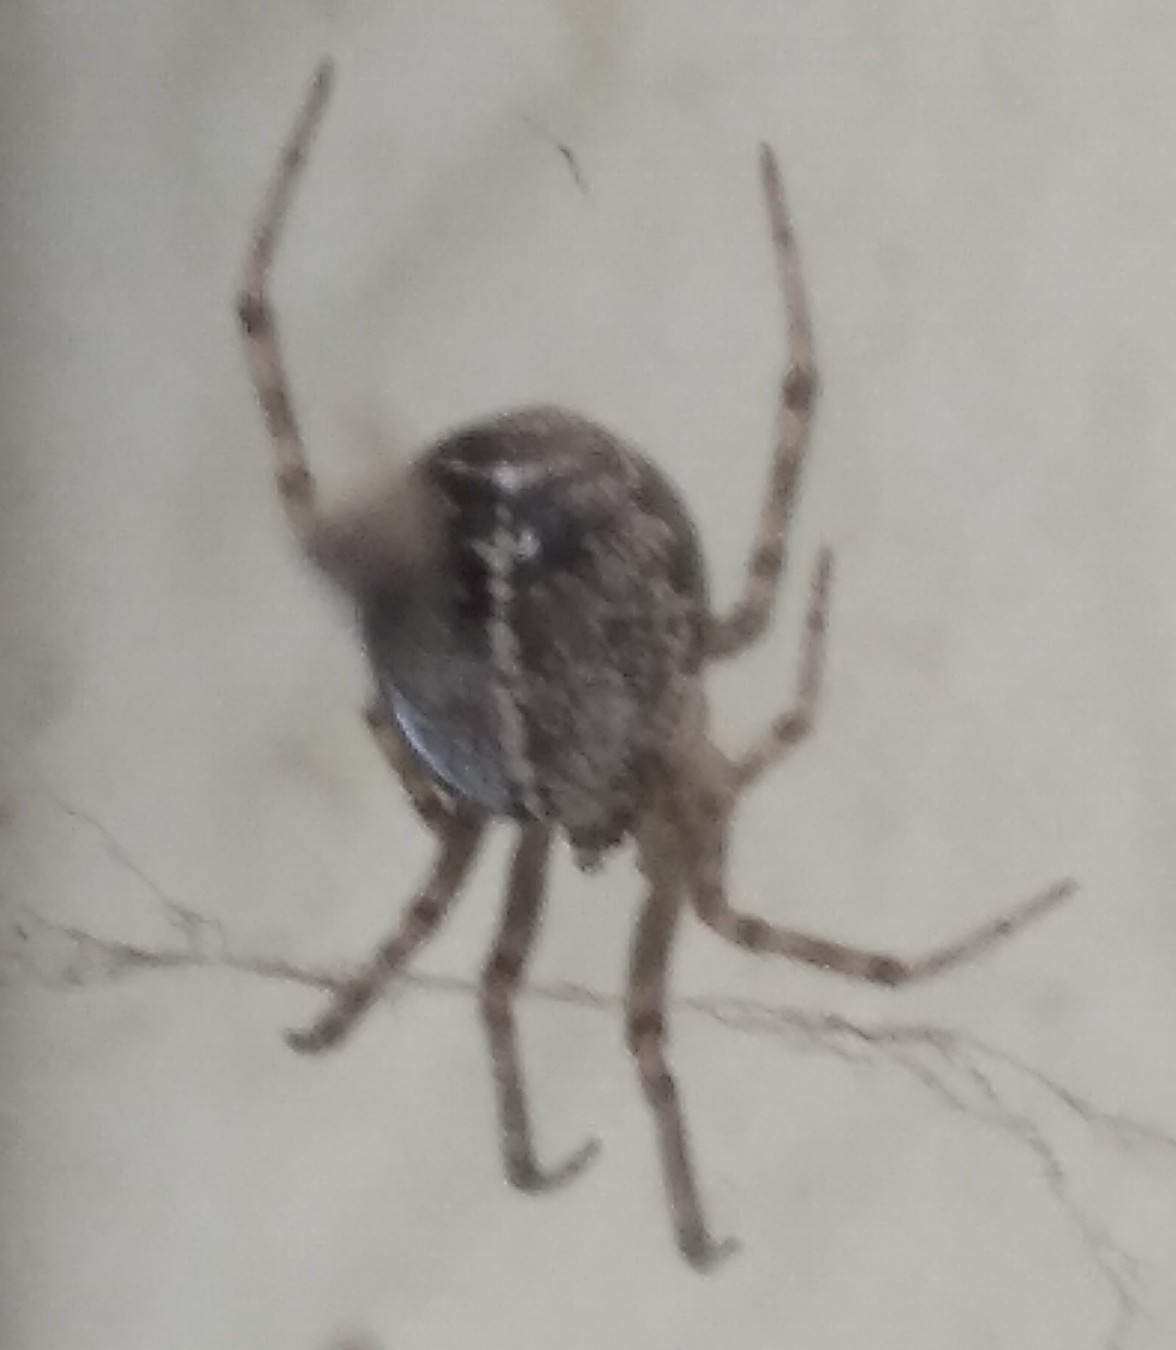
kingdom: Animalia
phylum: Arthropoda
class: Arachnida
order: Araneae
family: Theridiidae
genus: Steatoda
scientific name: Steatoda castanea
